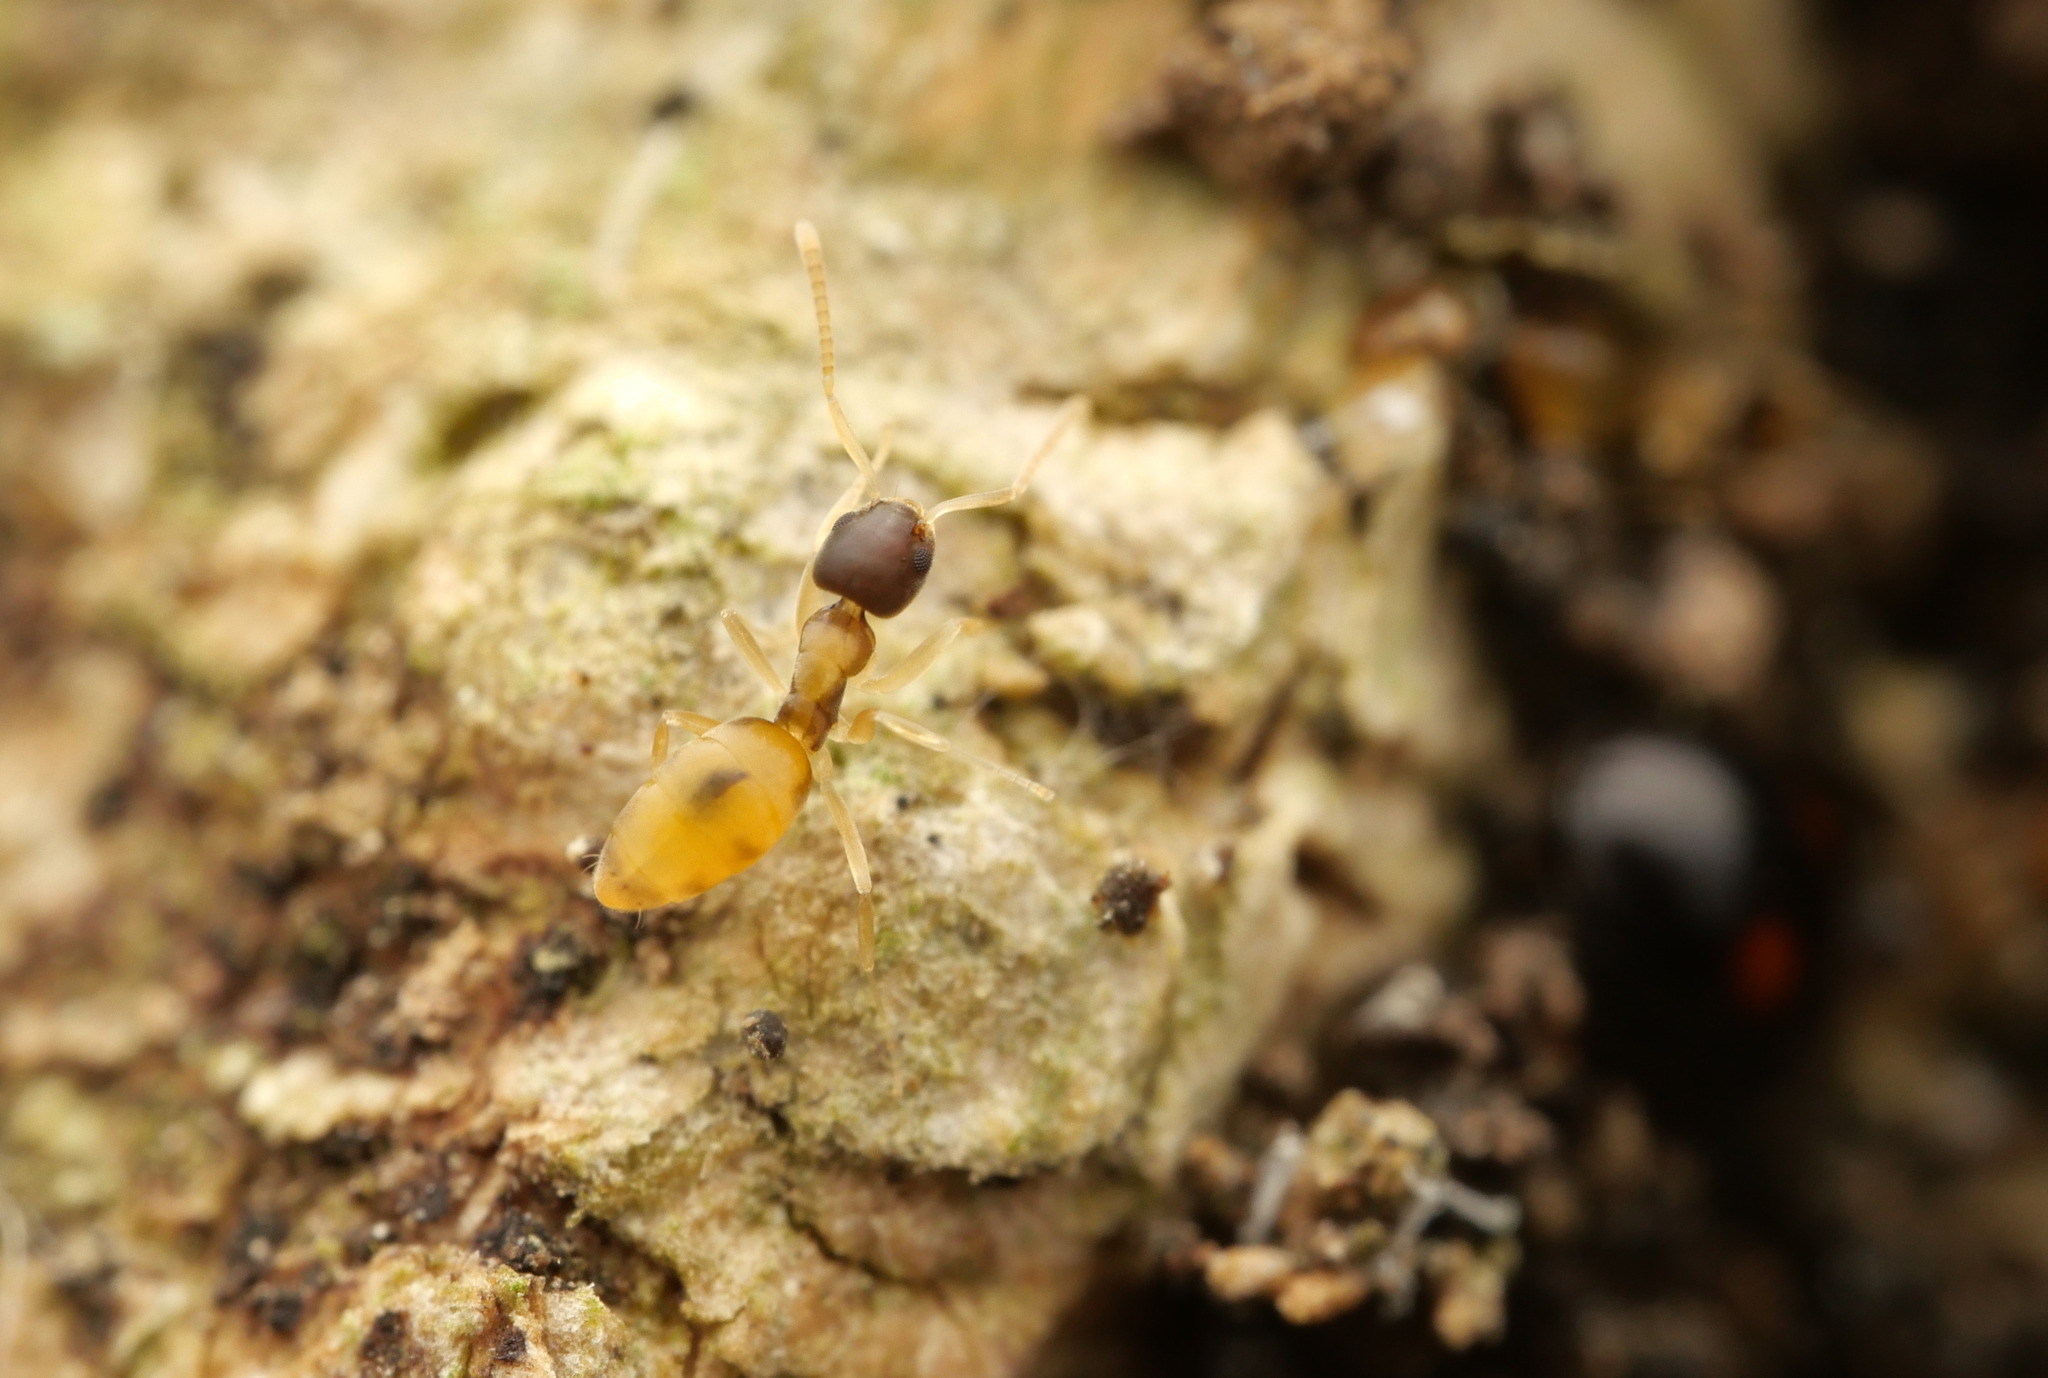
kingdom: Animalia
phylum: Arthropoda
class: Insecta
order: Hymenoptera
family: Formicidae
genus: Tapinoma
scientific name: Tapinoma melanocephalum
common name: Ghost ant
